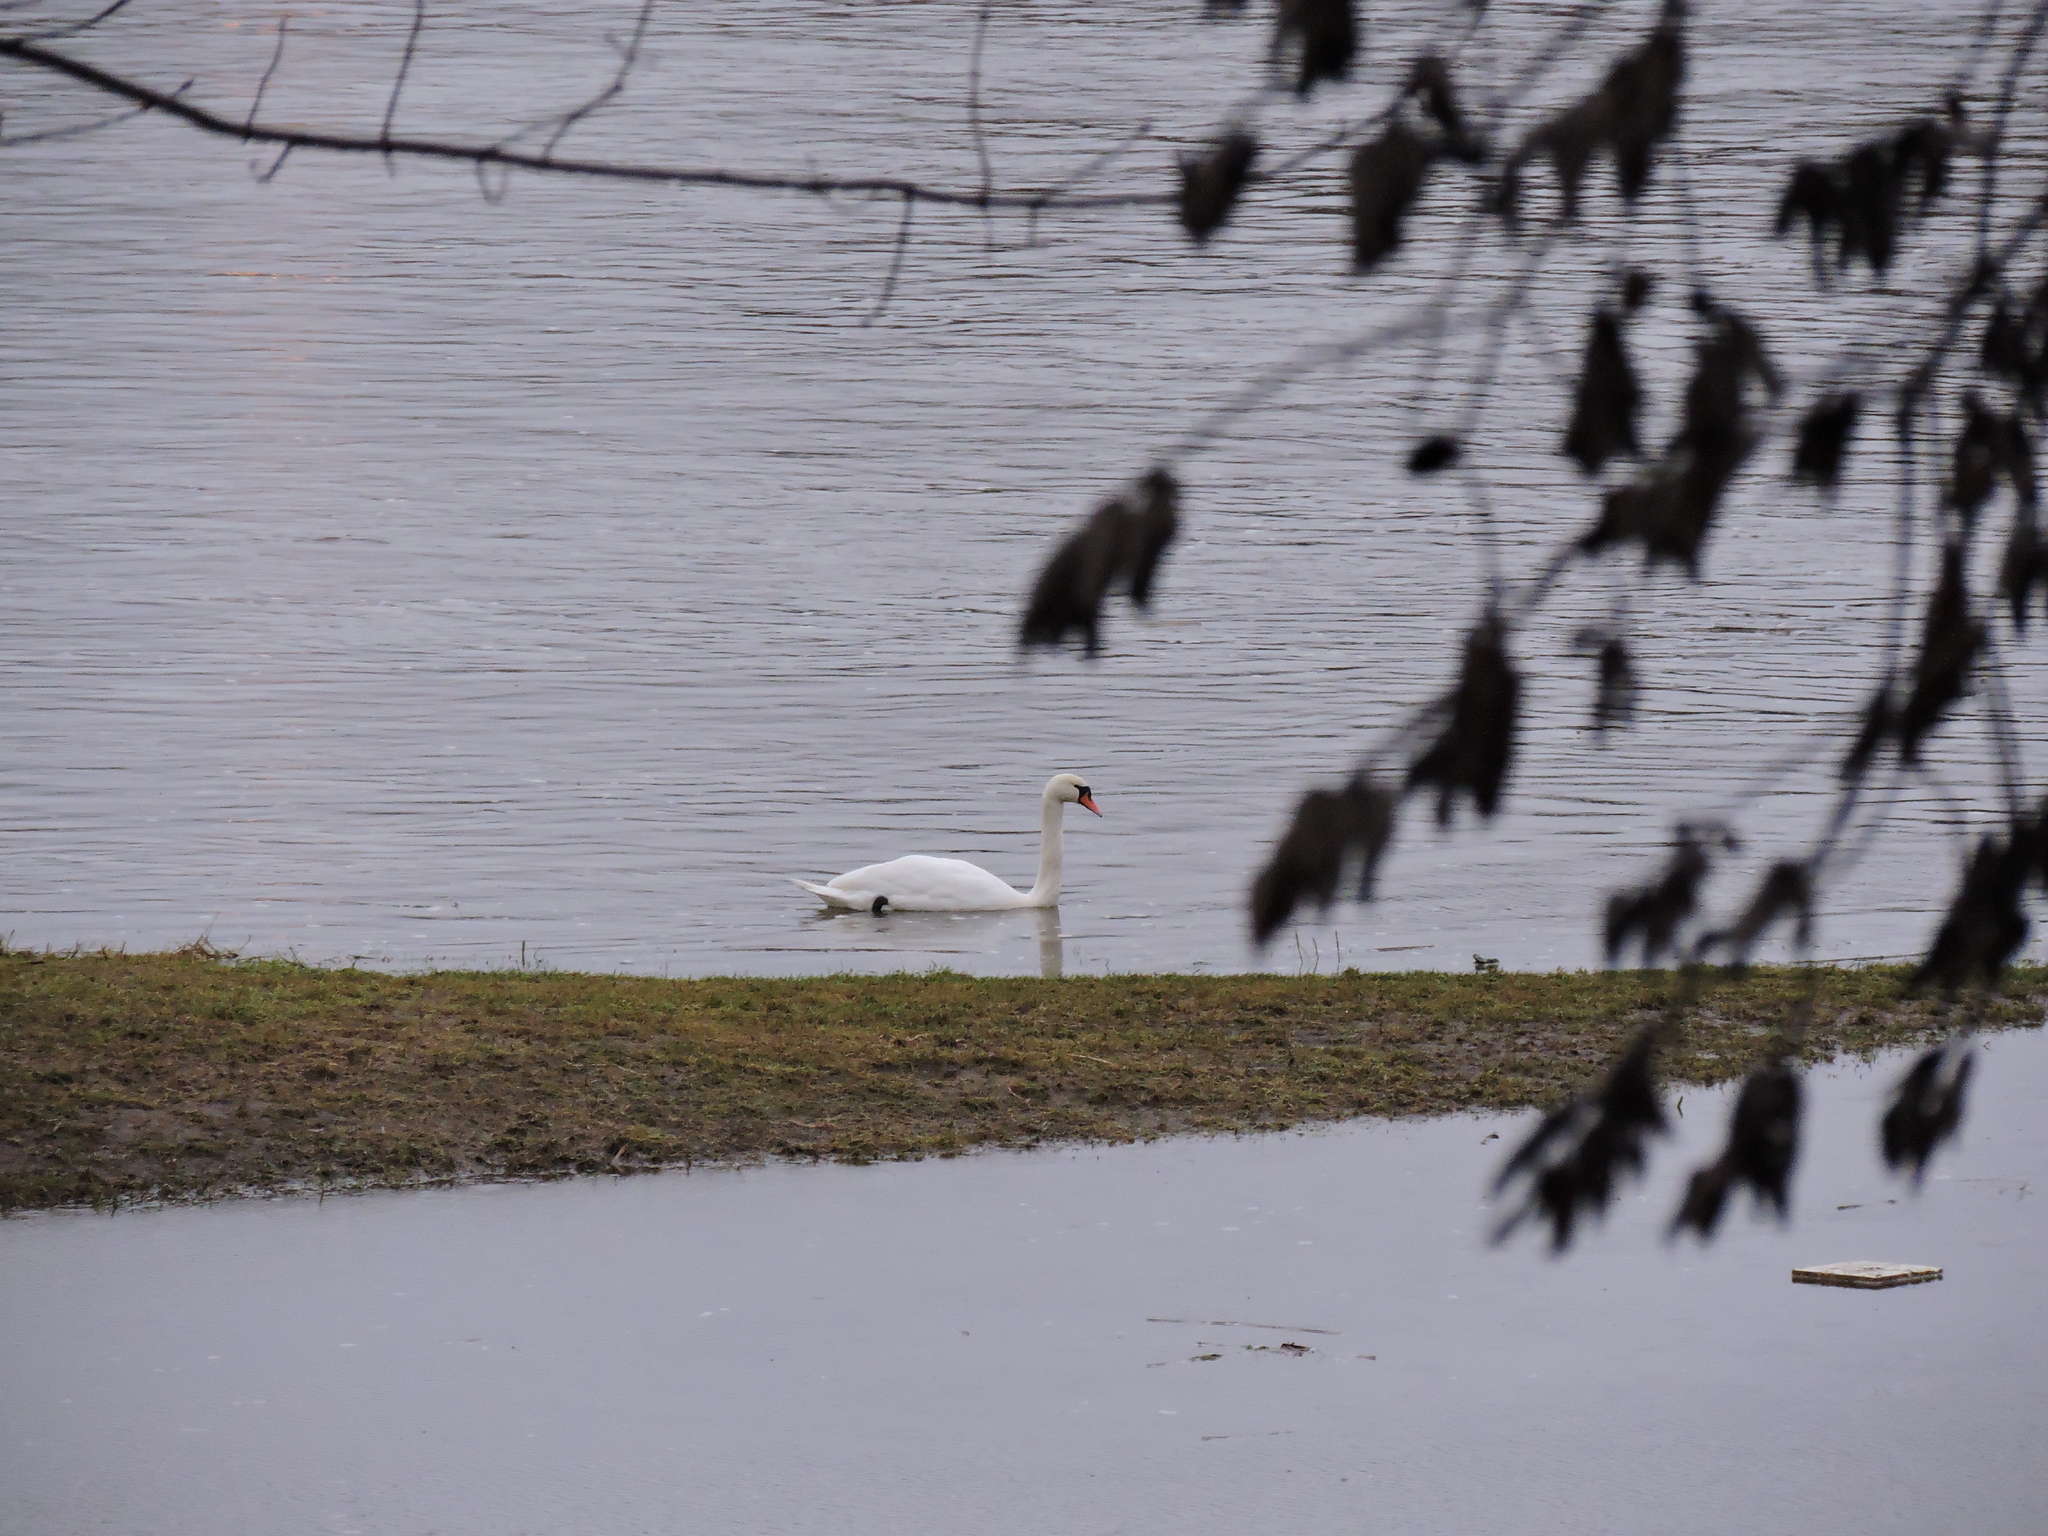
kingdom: Animalia
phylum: Chordata
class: Aves
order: Anseriformes
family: Anatidae
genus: Cygnus
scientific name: Cygnus olor
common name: Mute swan
